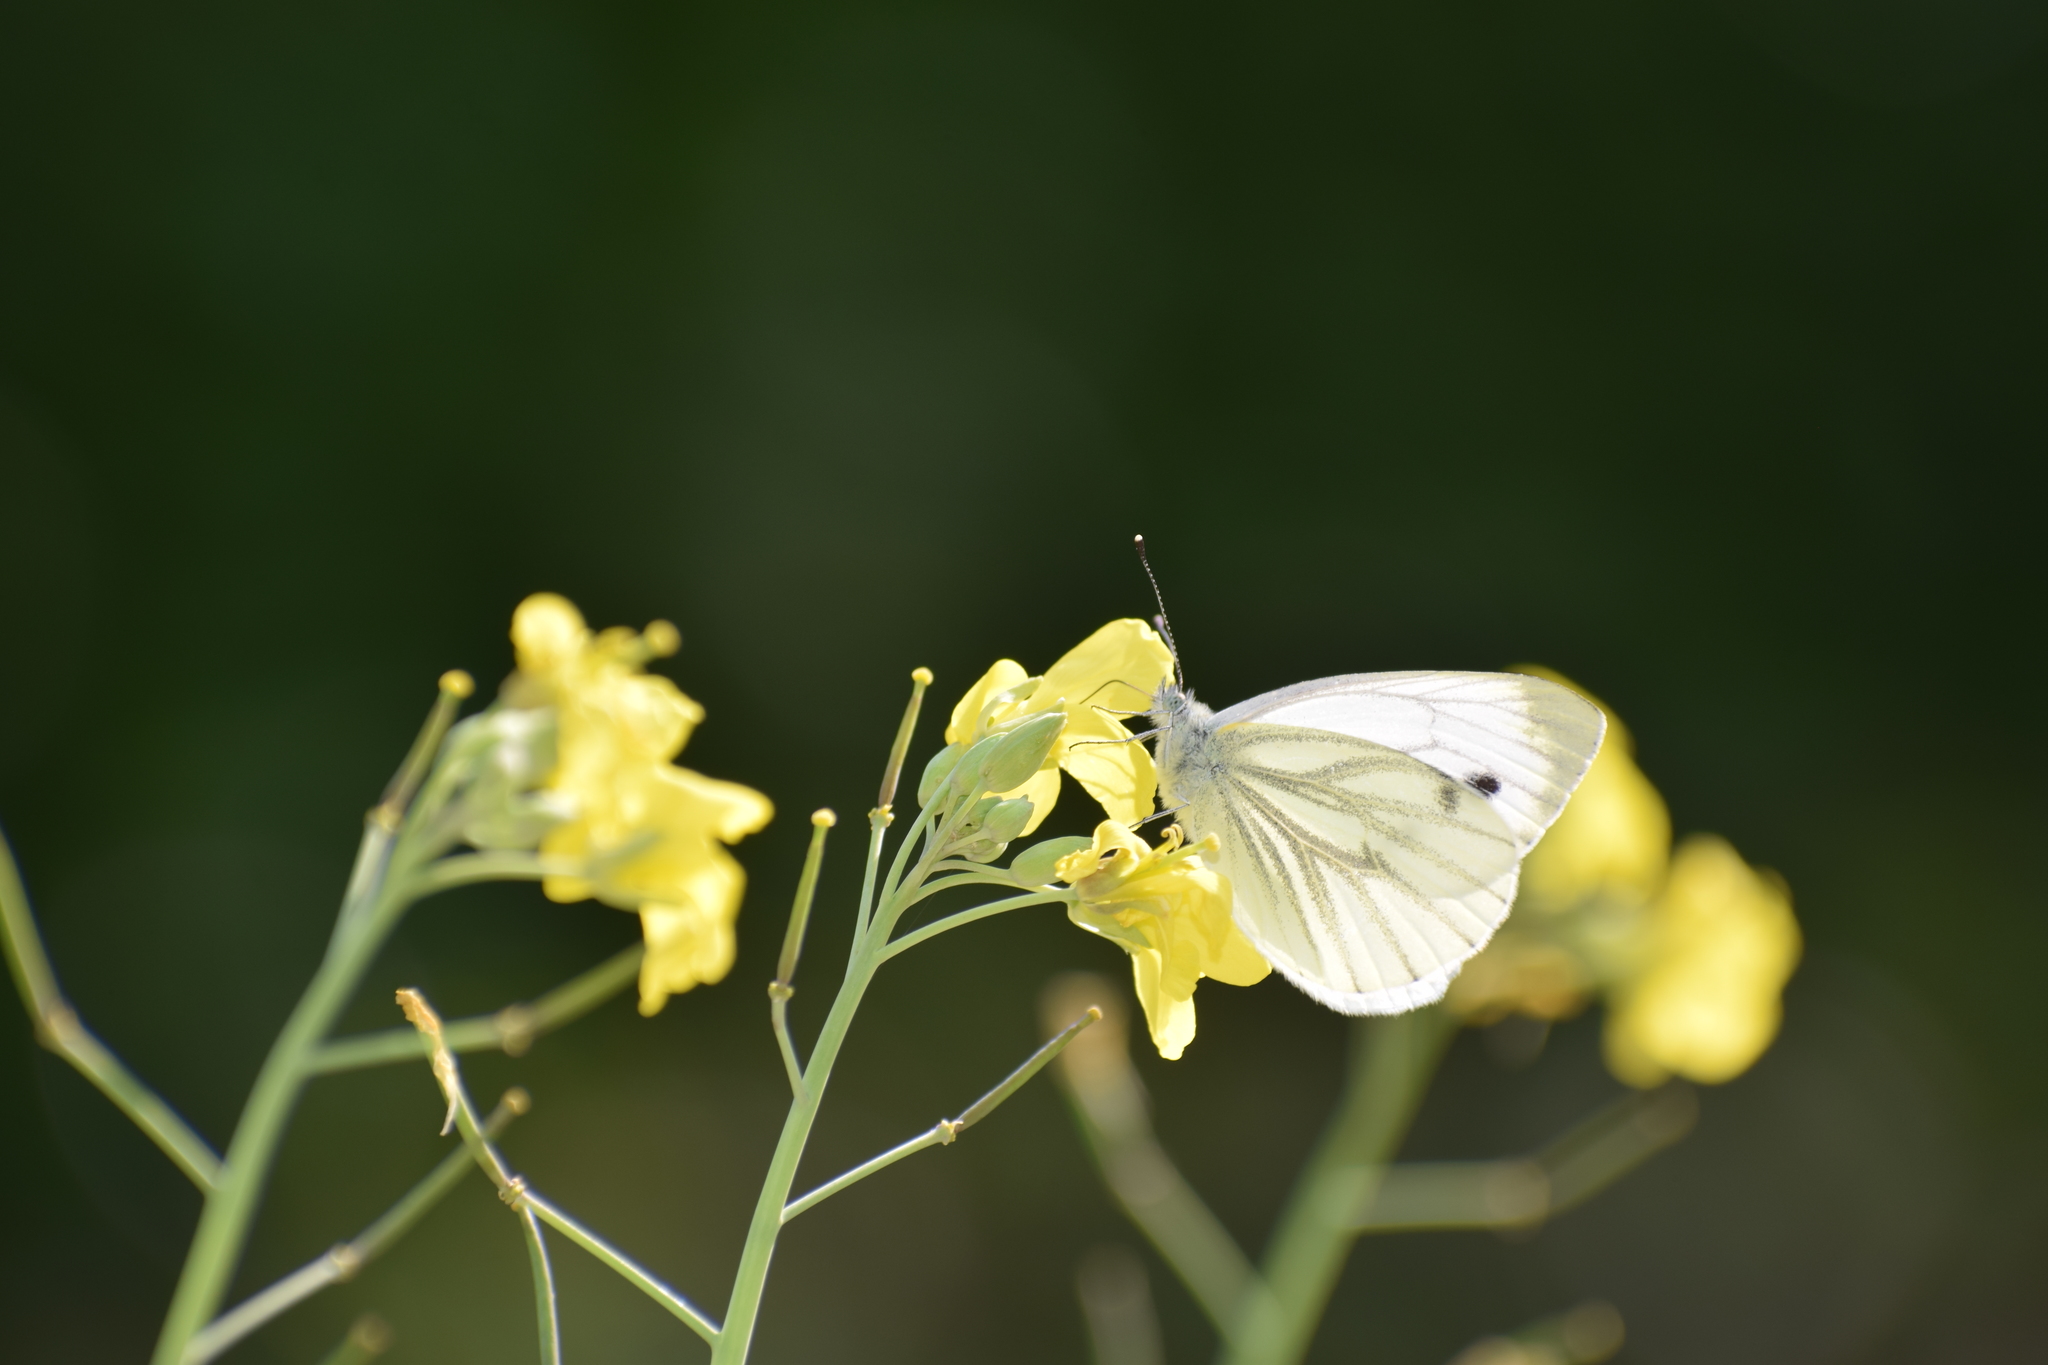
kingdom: Animalia
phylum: Arthropoda
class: Insecta
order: Lepidoptera
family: Pieridae
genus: Pieris
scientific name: Pieris napi
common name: Green-veined white
